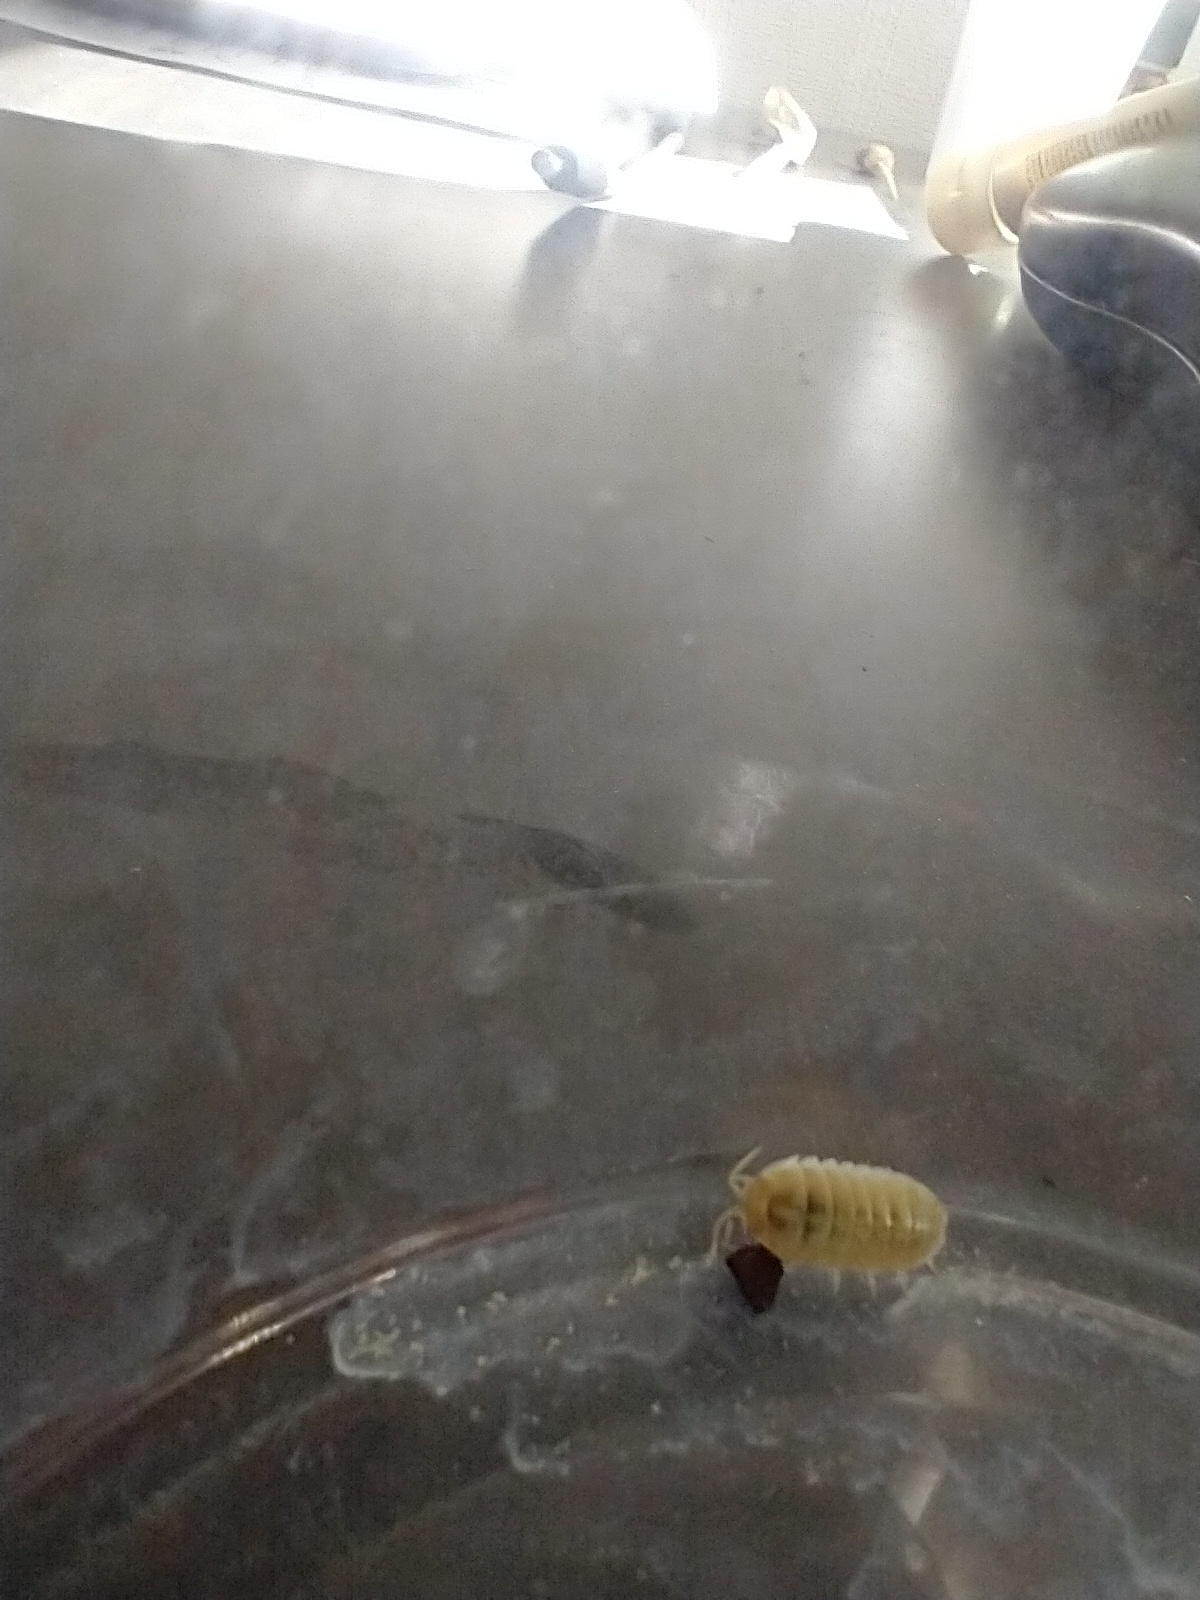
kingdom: Animalia
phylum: Arthropoda
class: Malacostraca
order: Isopoda
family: Armadillidiidae
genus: Armadillidium
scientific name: Armadillidium vulgare
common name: Common pill woodlouse
